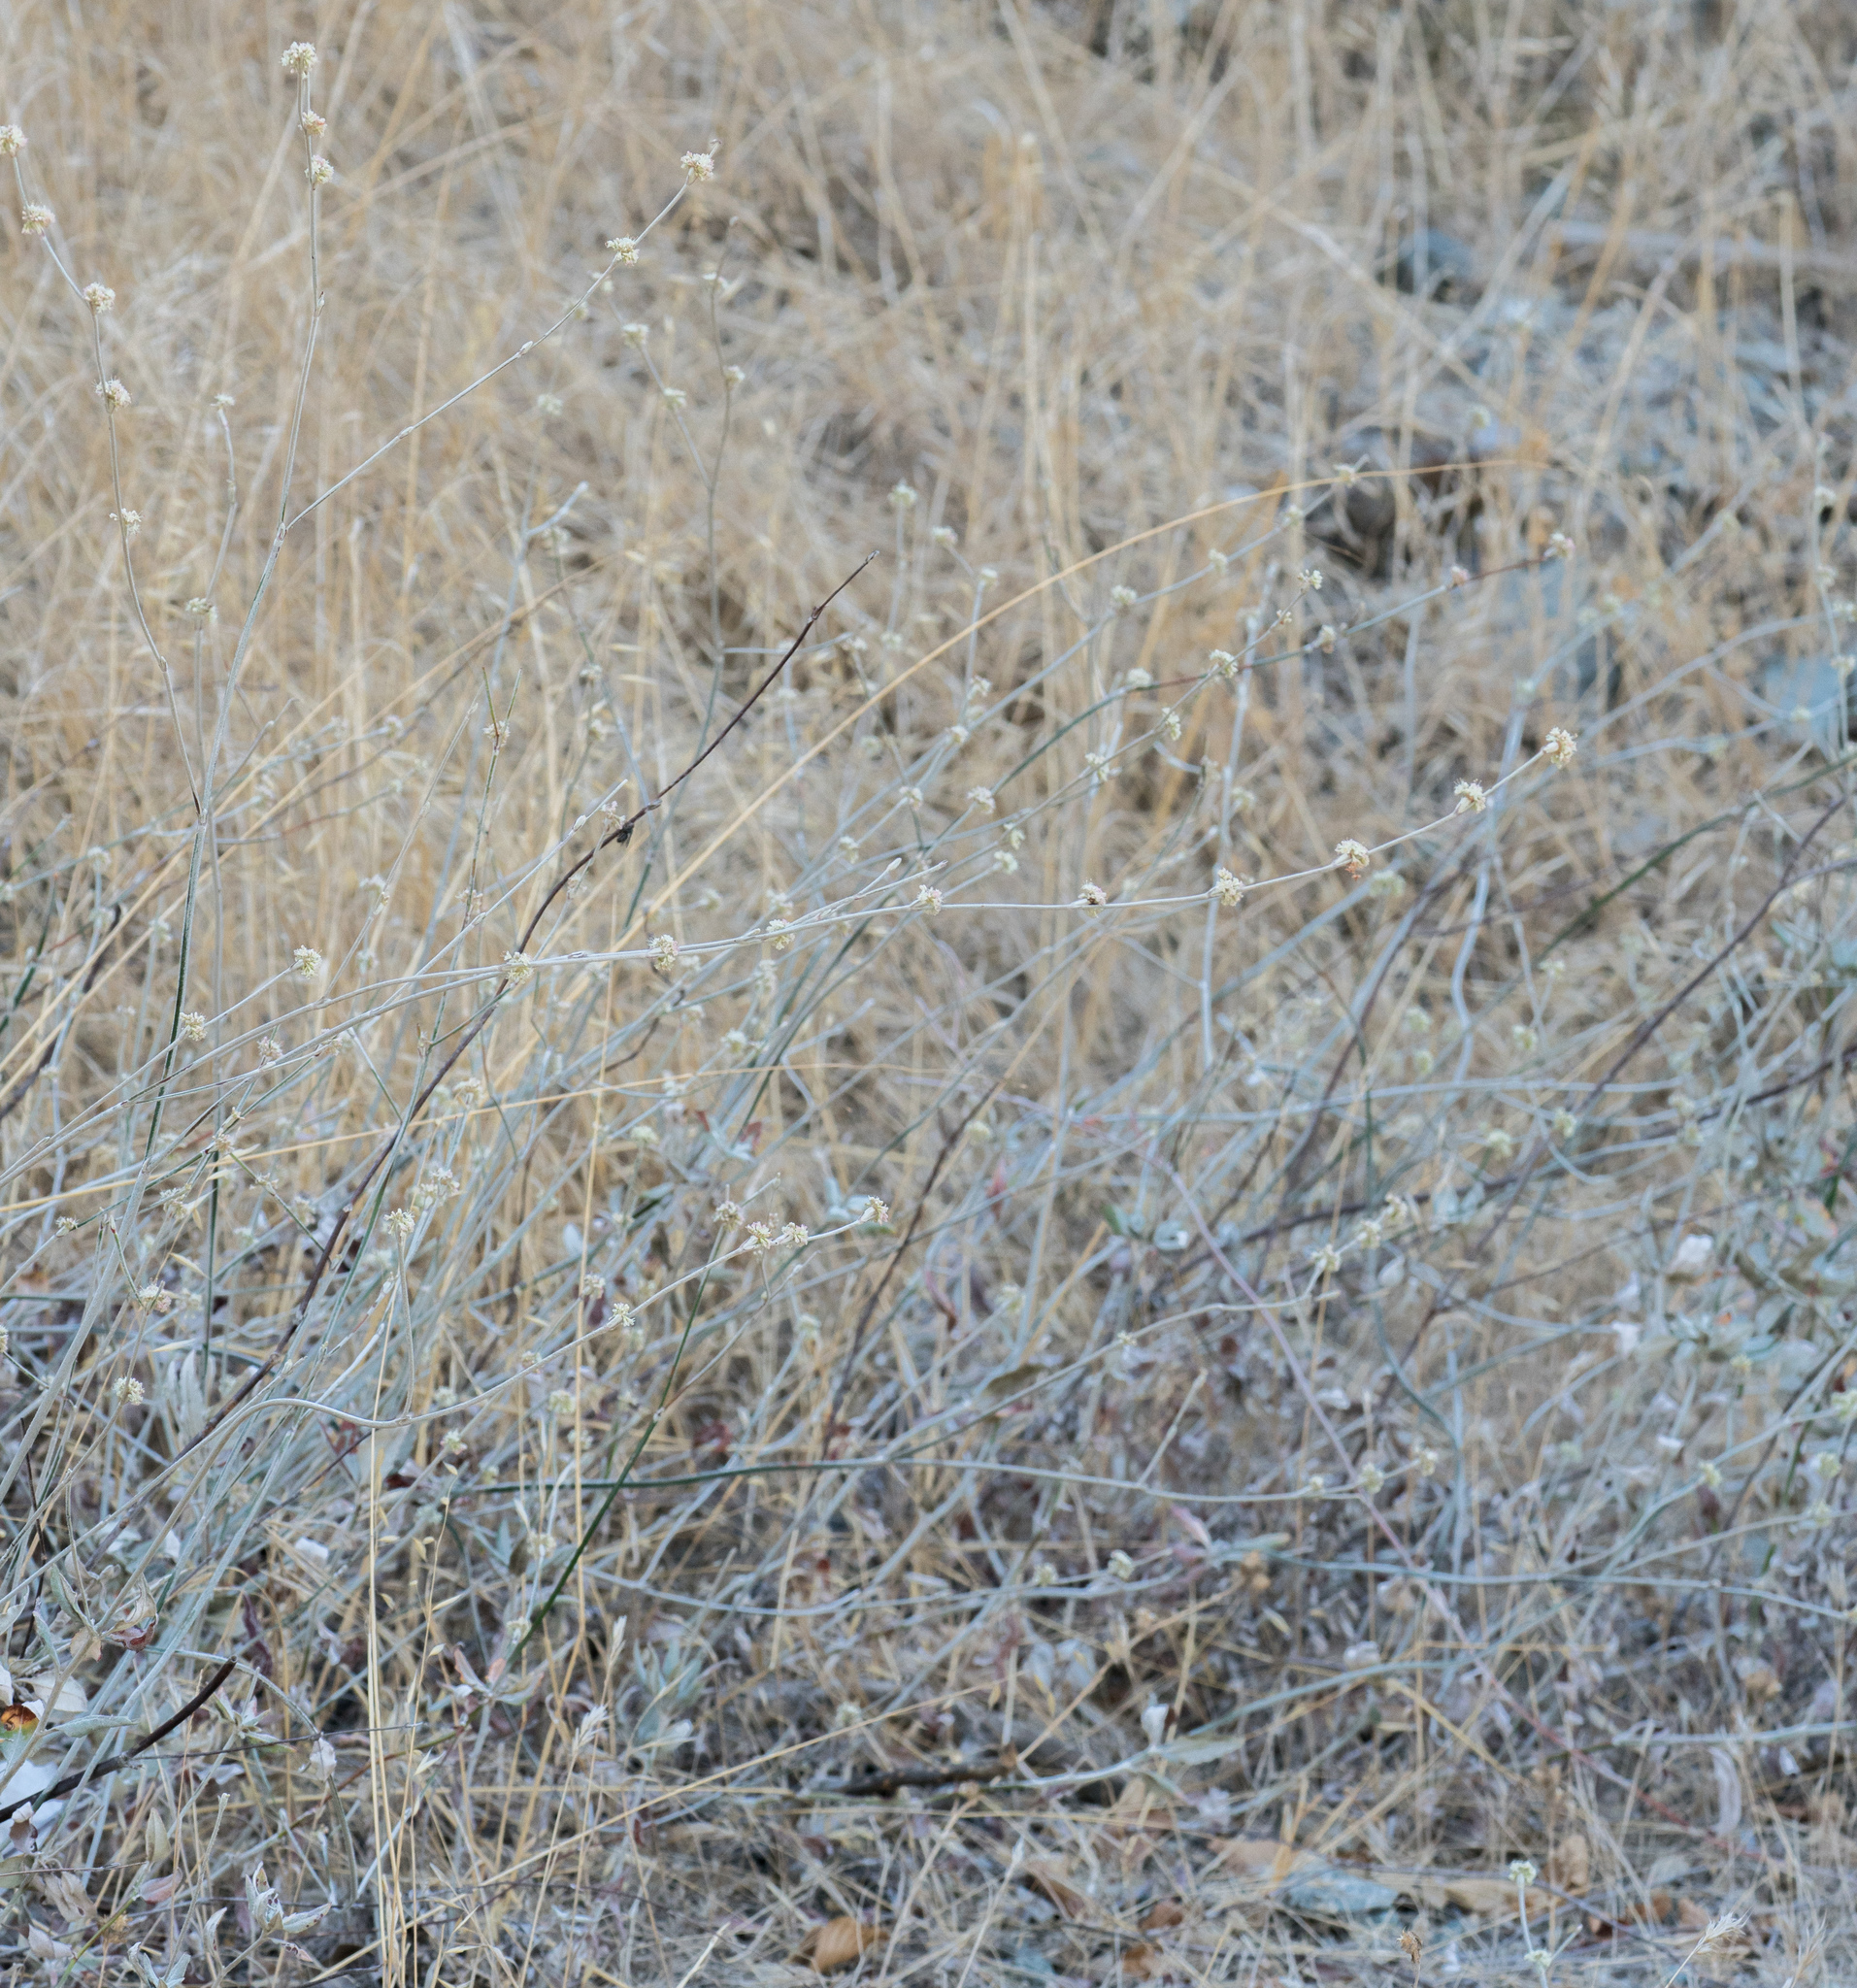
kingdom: Plantae
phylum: Tracheophyta
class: Magnoliopsida
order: Caryophyllales
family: Polygonaceae
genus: Eriogonum
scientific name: Eriogonum elongatum
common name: Long-stem wild buckwheat
